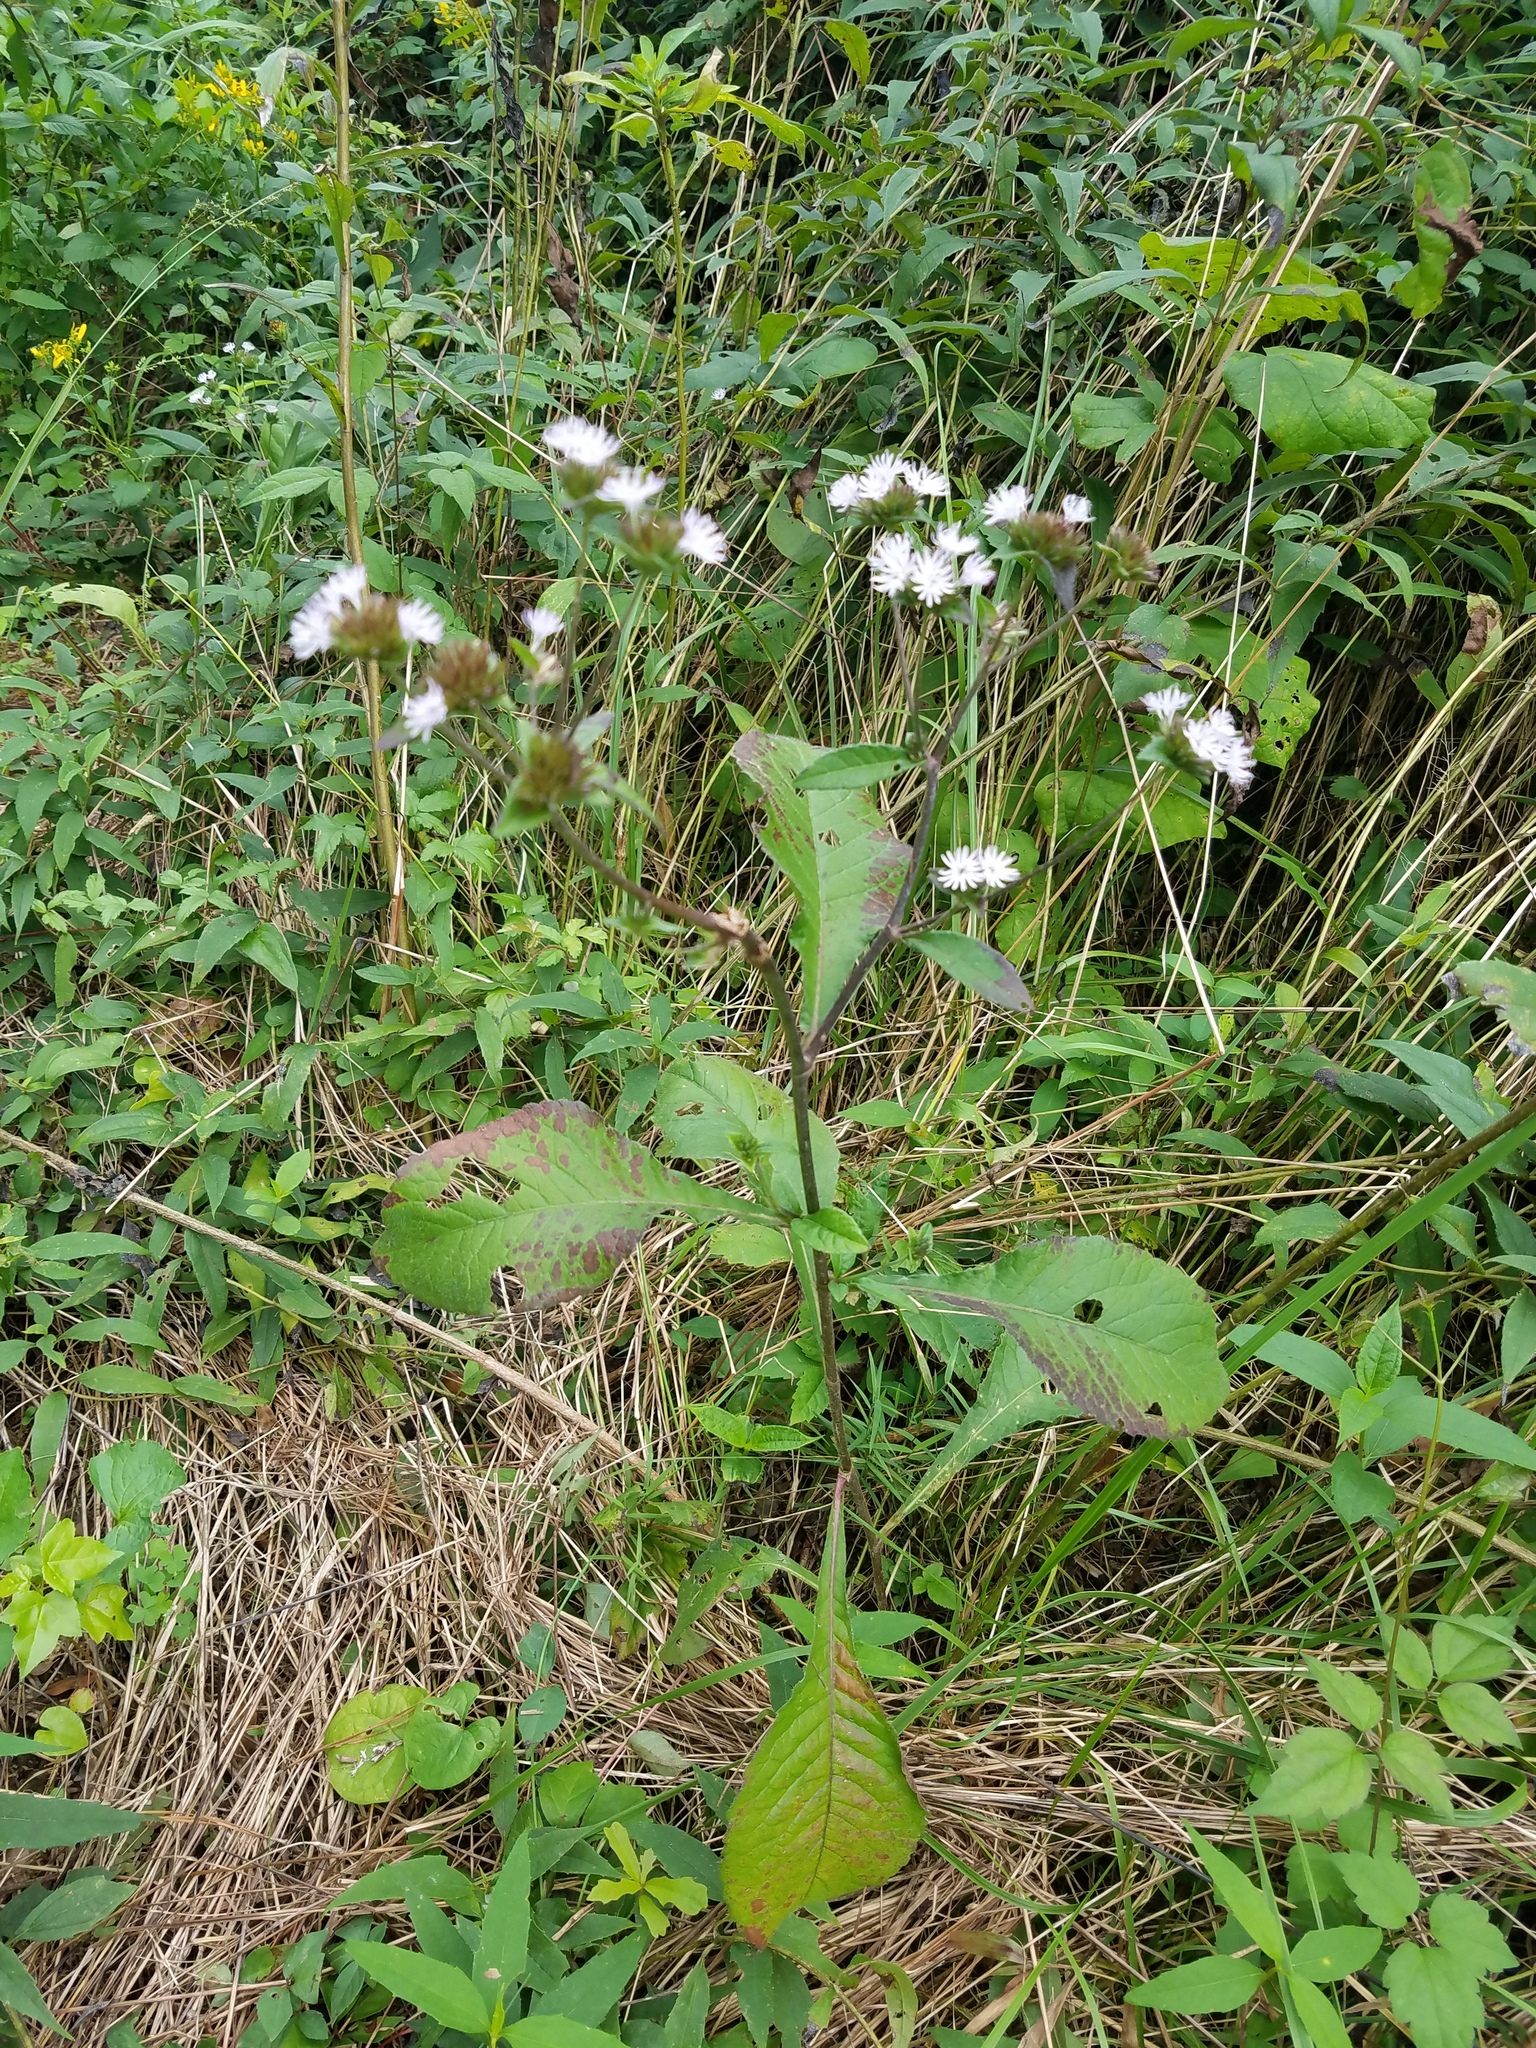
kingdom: Plantae
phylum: Tracheophyta
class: Magnoliopsida
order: Asterales
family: Asteraceae
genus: Elephantopus
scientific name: Elephantopus carolinianus
